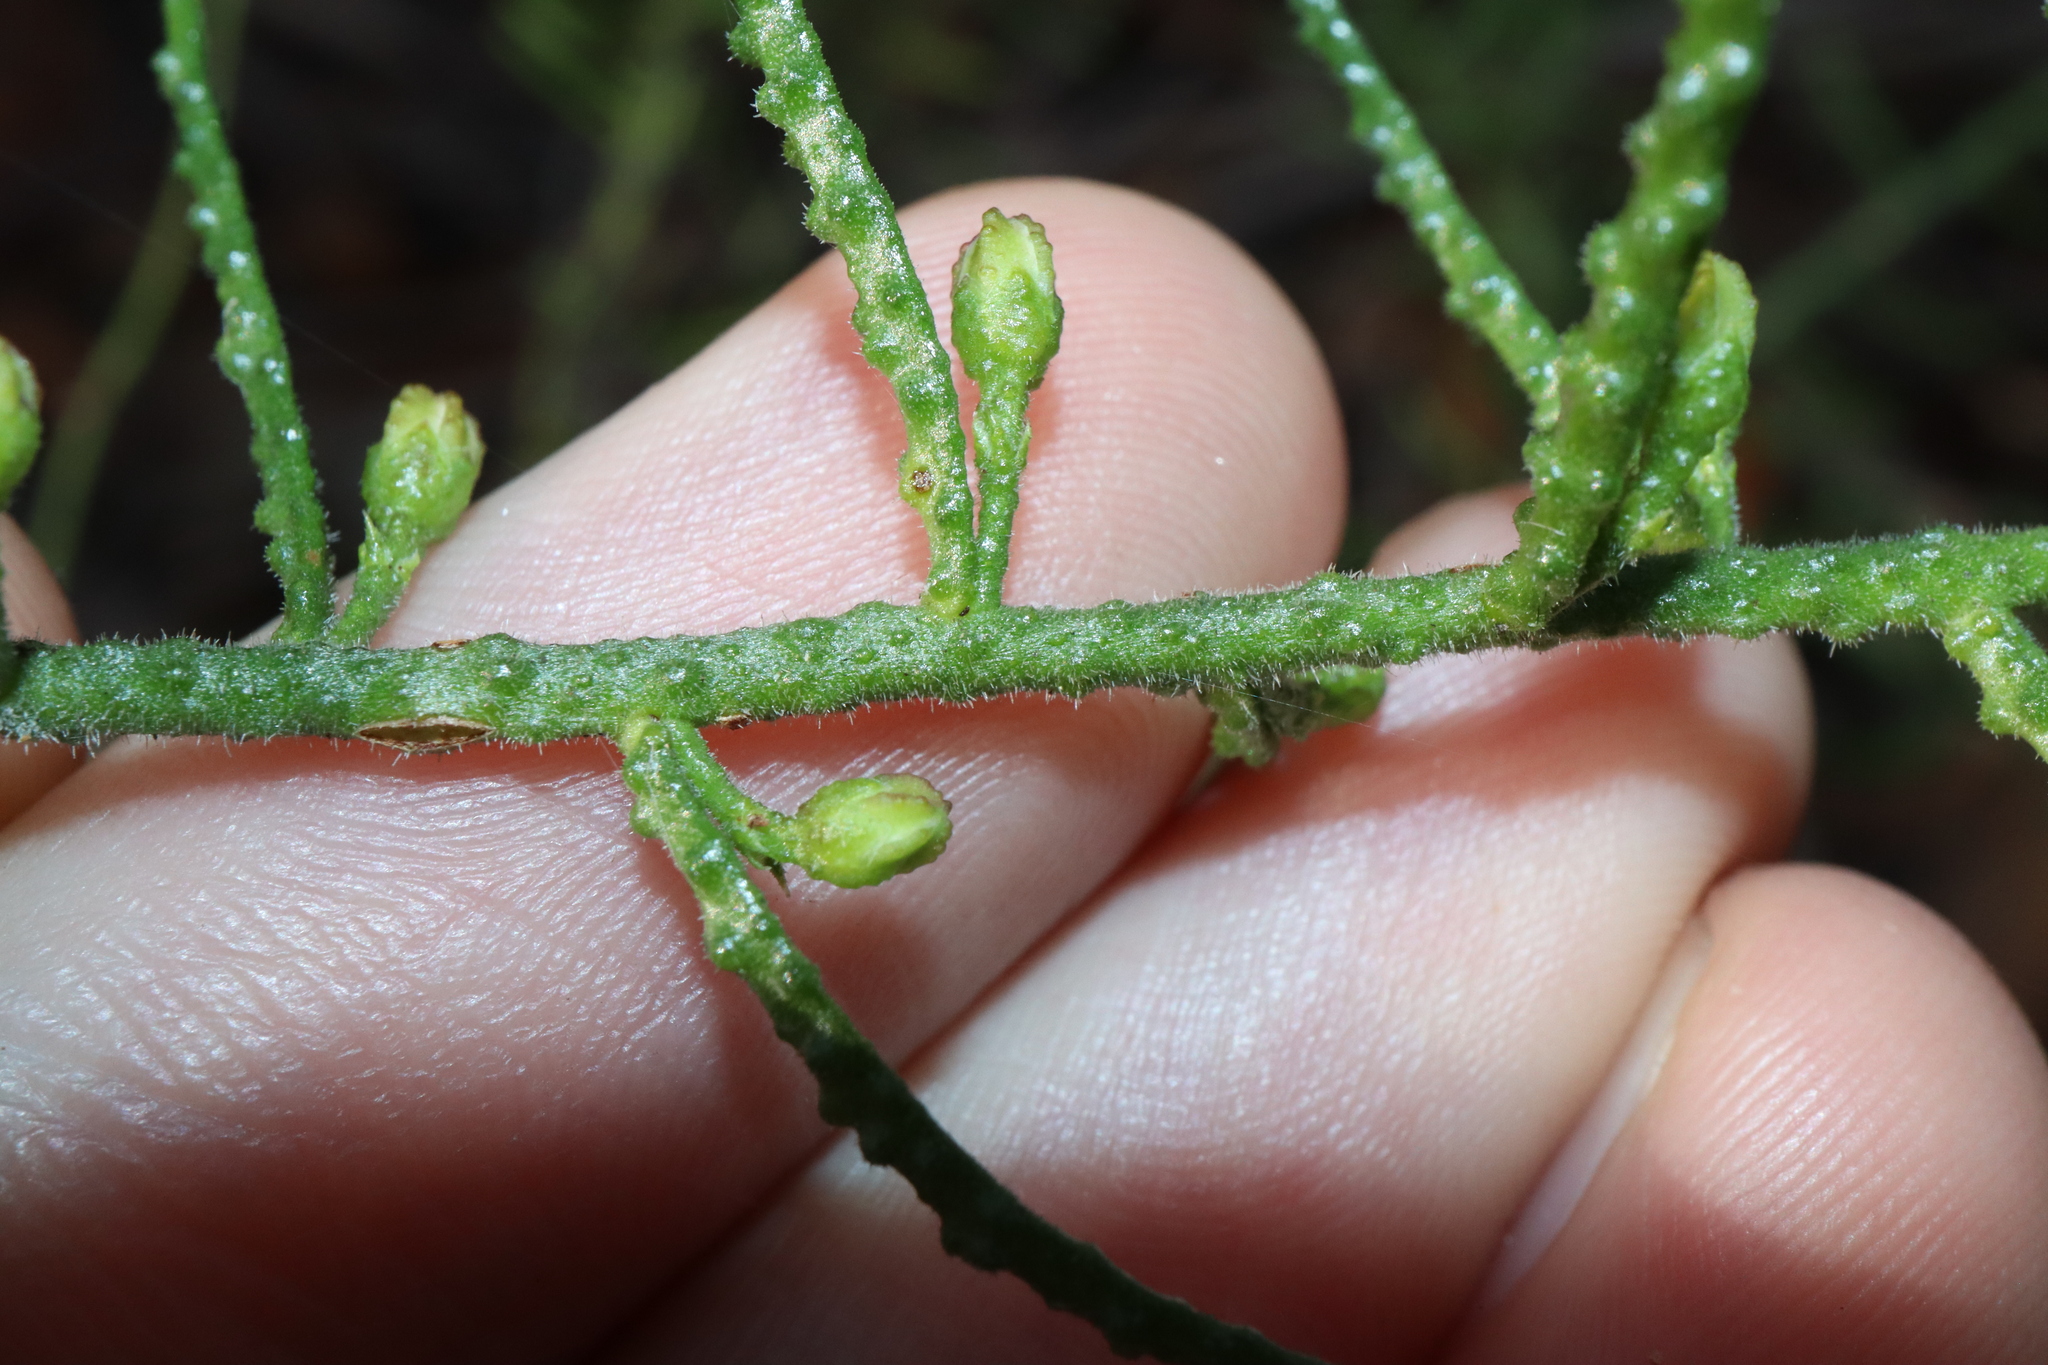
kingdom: Plantae
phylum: Tracheophyta
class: Magnoliopsida
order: Sapindales
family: Rutaceae
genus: Philotheca
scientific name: Philotheca scabra
